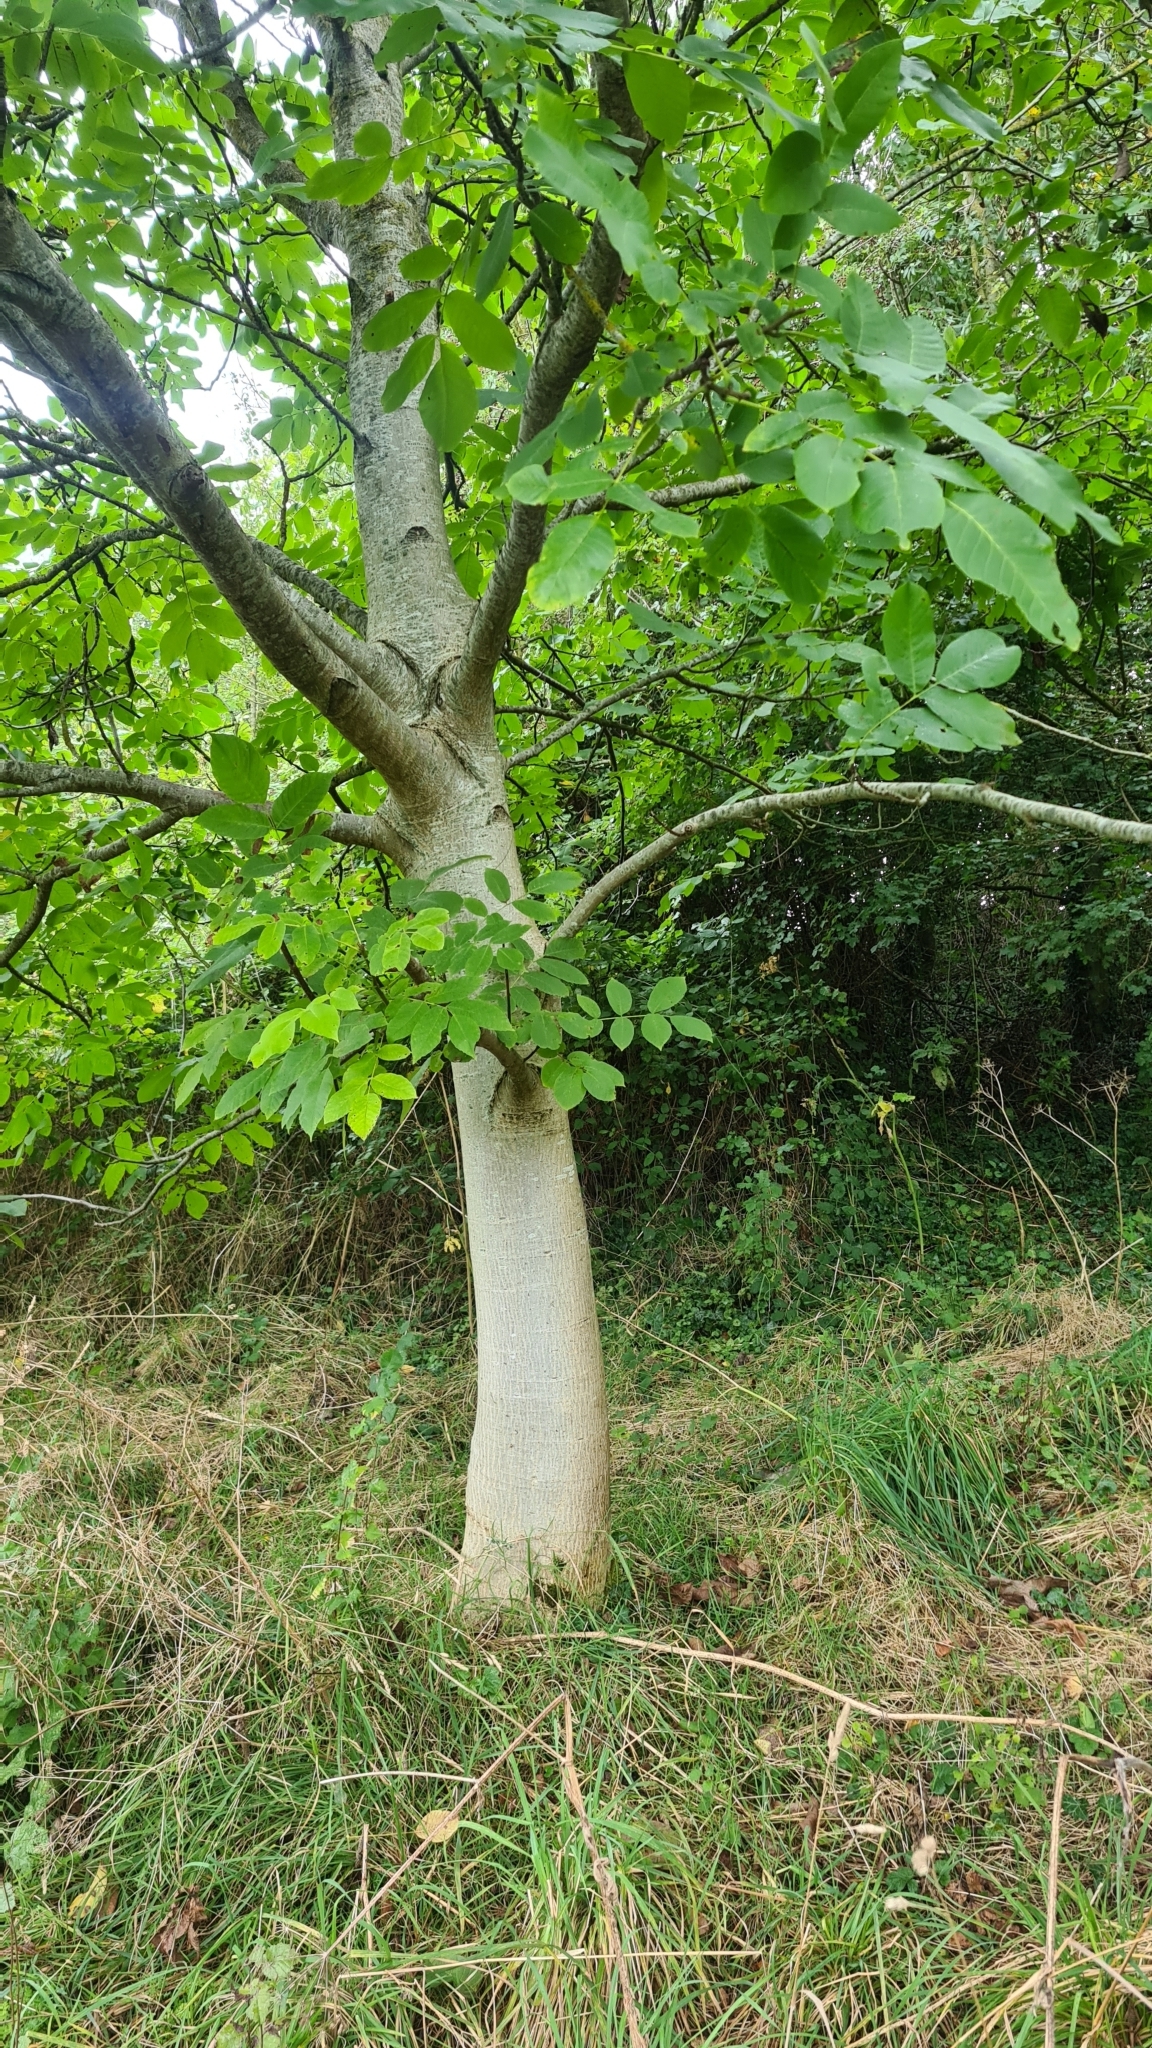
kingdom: Plantae
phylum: Tracheophyta
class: Magnoliopsida
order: Fagales
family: Juglandaceae
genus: Juglans
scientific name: Juglans regia
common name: Walnut
